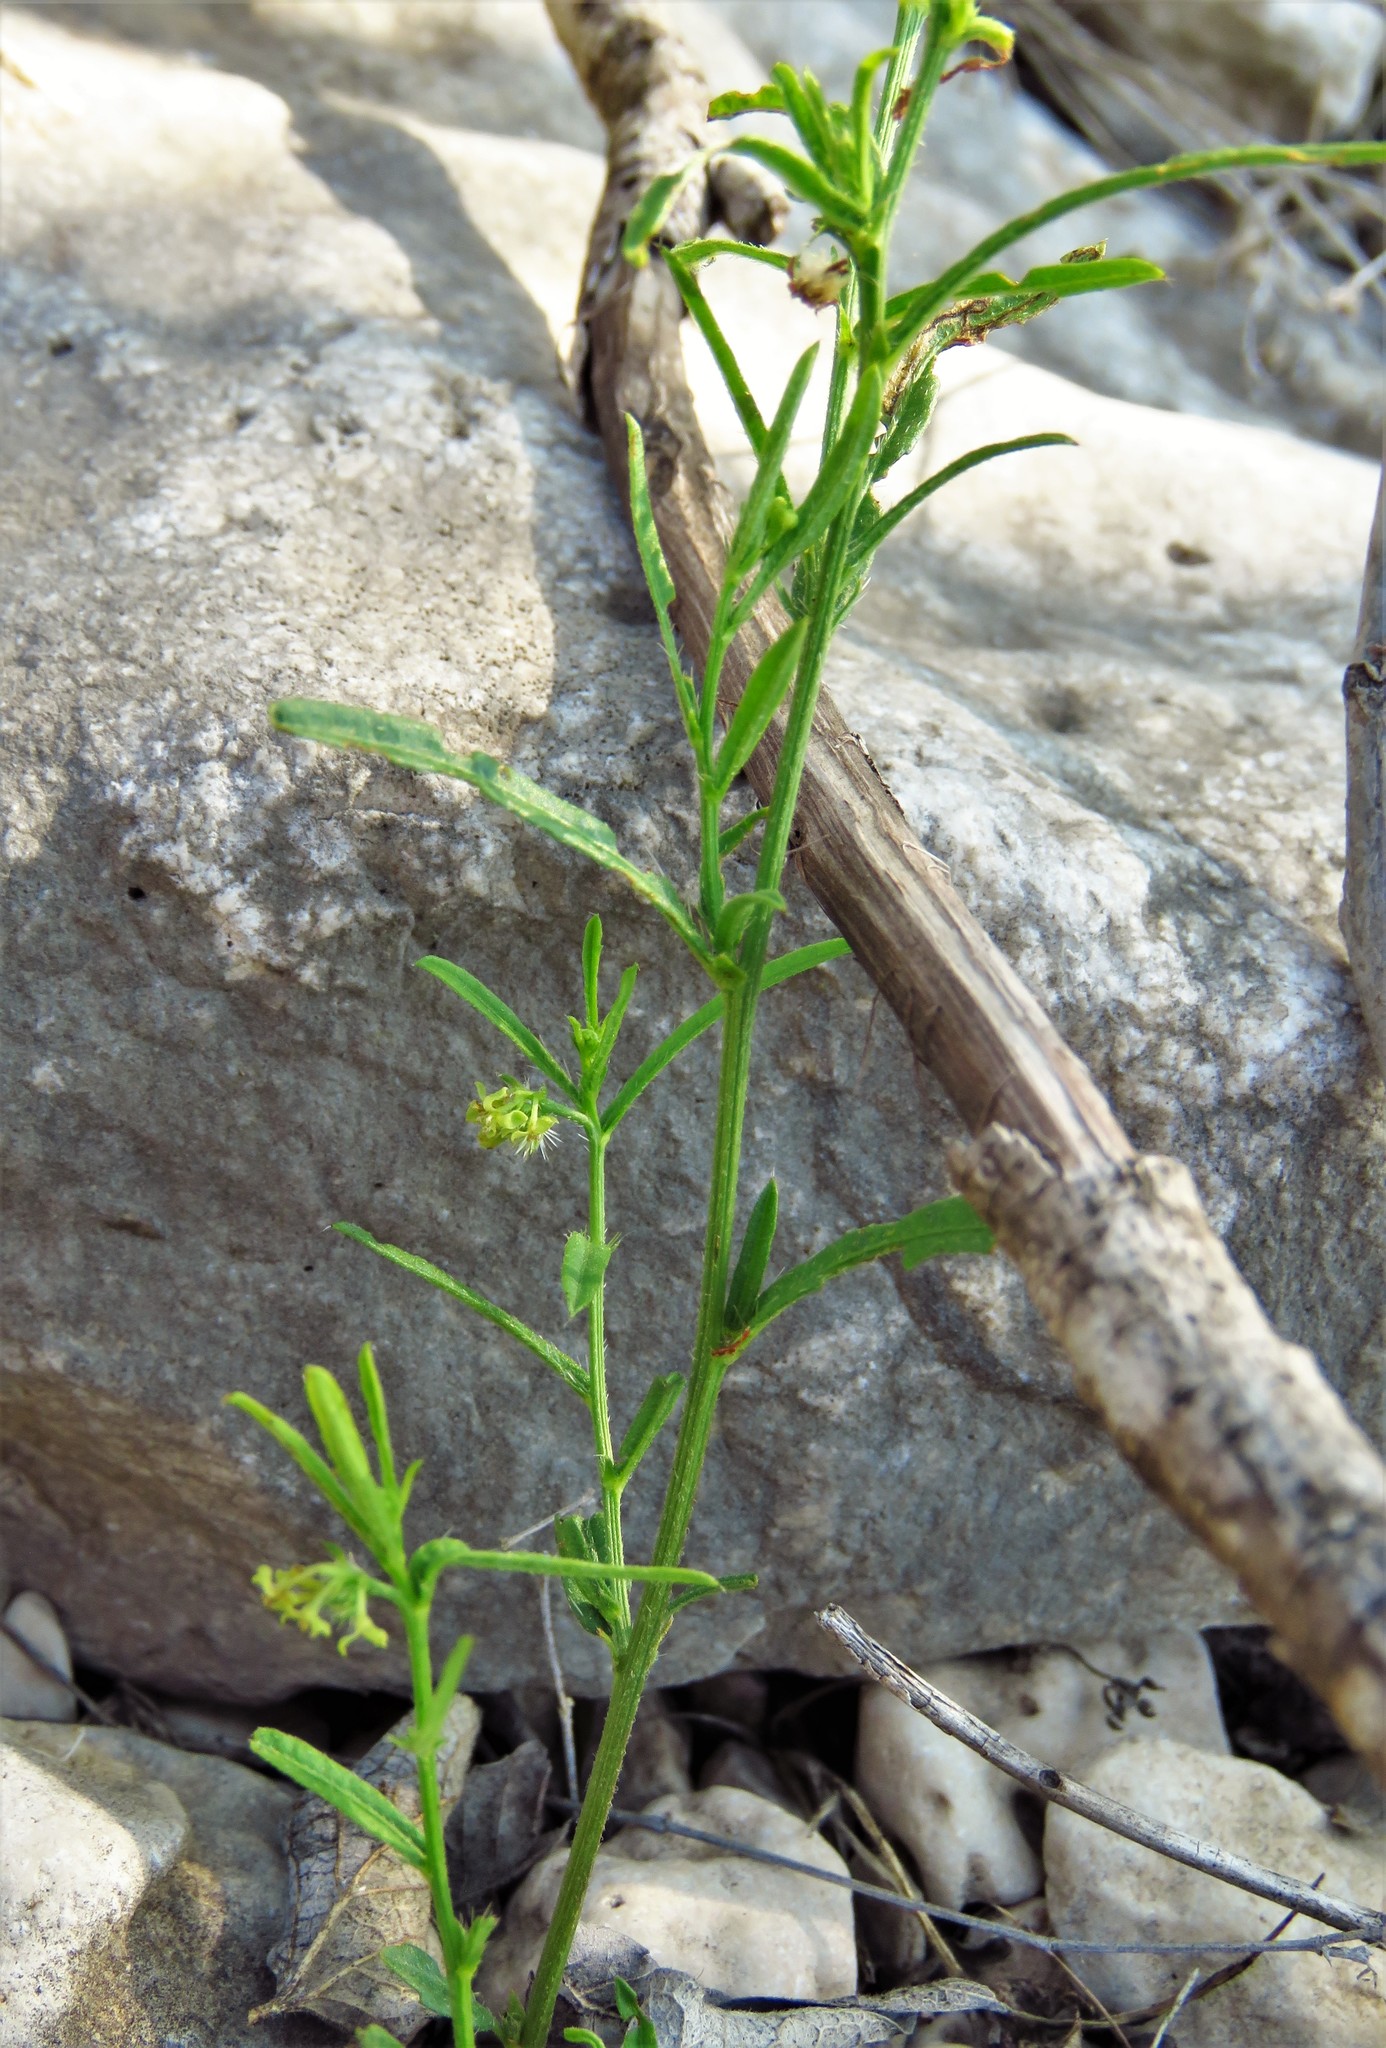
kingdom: Plantae
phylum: Tracheophyta
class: Magnoliopsida
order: Malpighiales
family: Euphorbiaceae
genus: Tragia
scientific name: Tragia leptophylla
